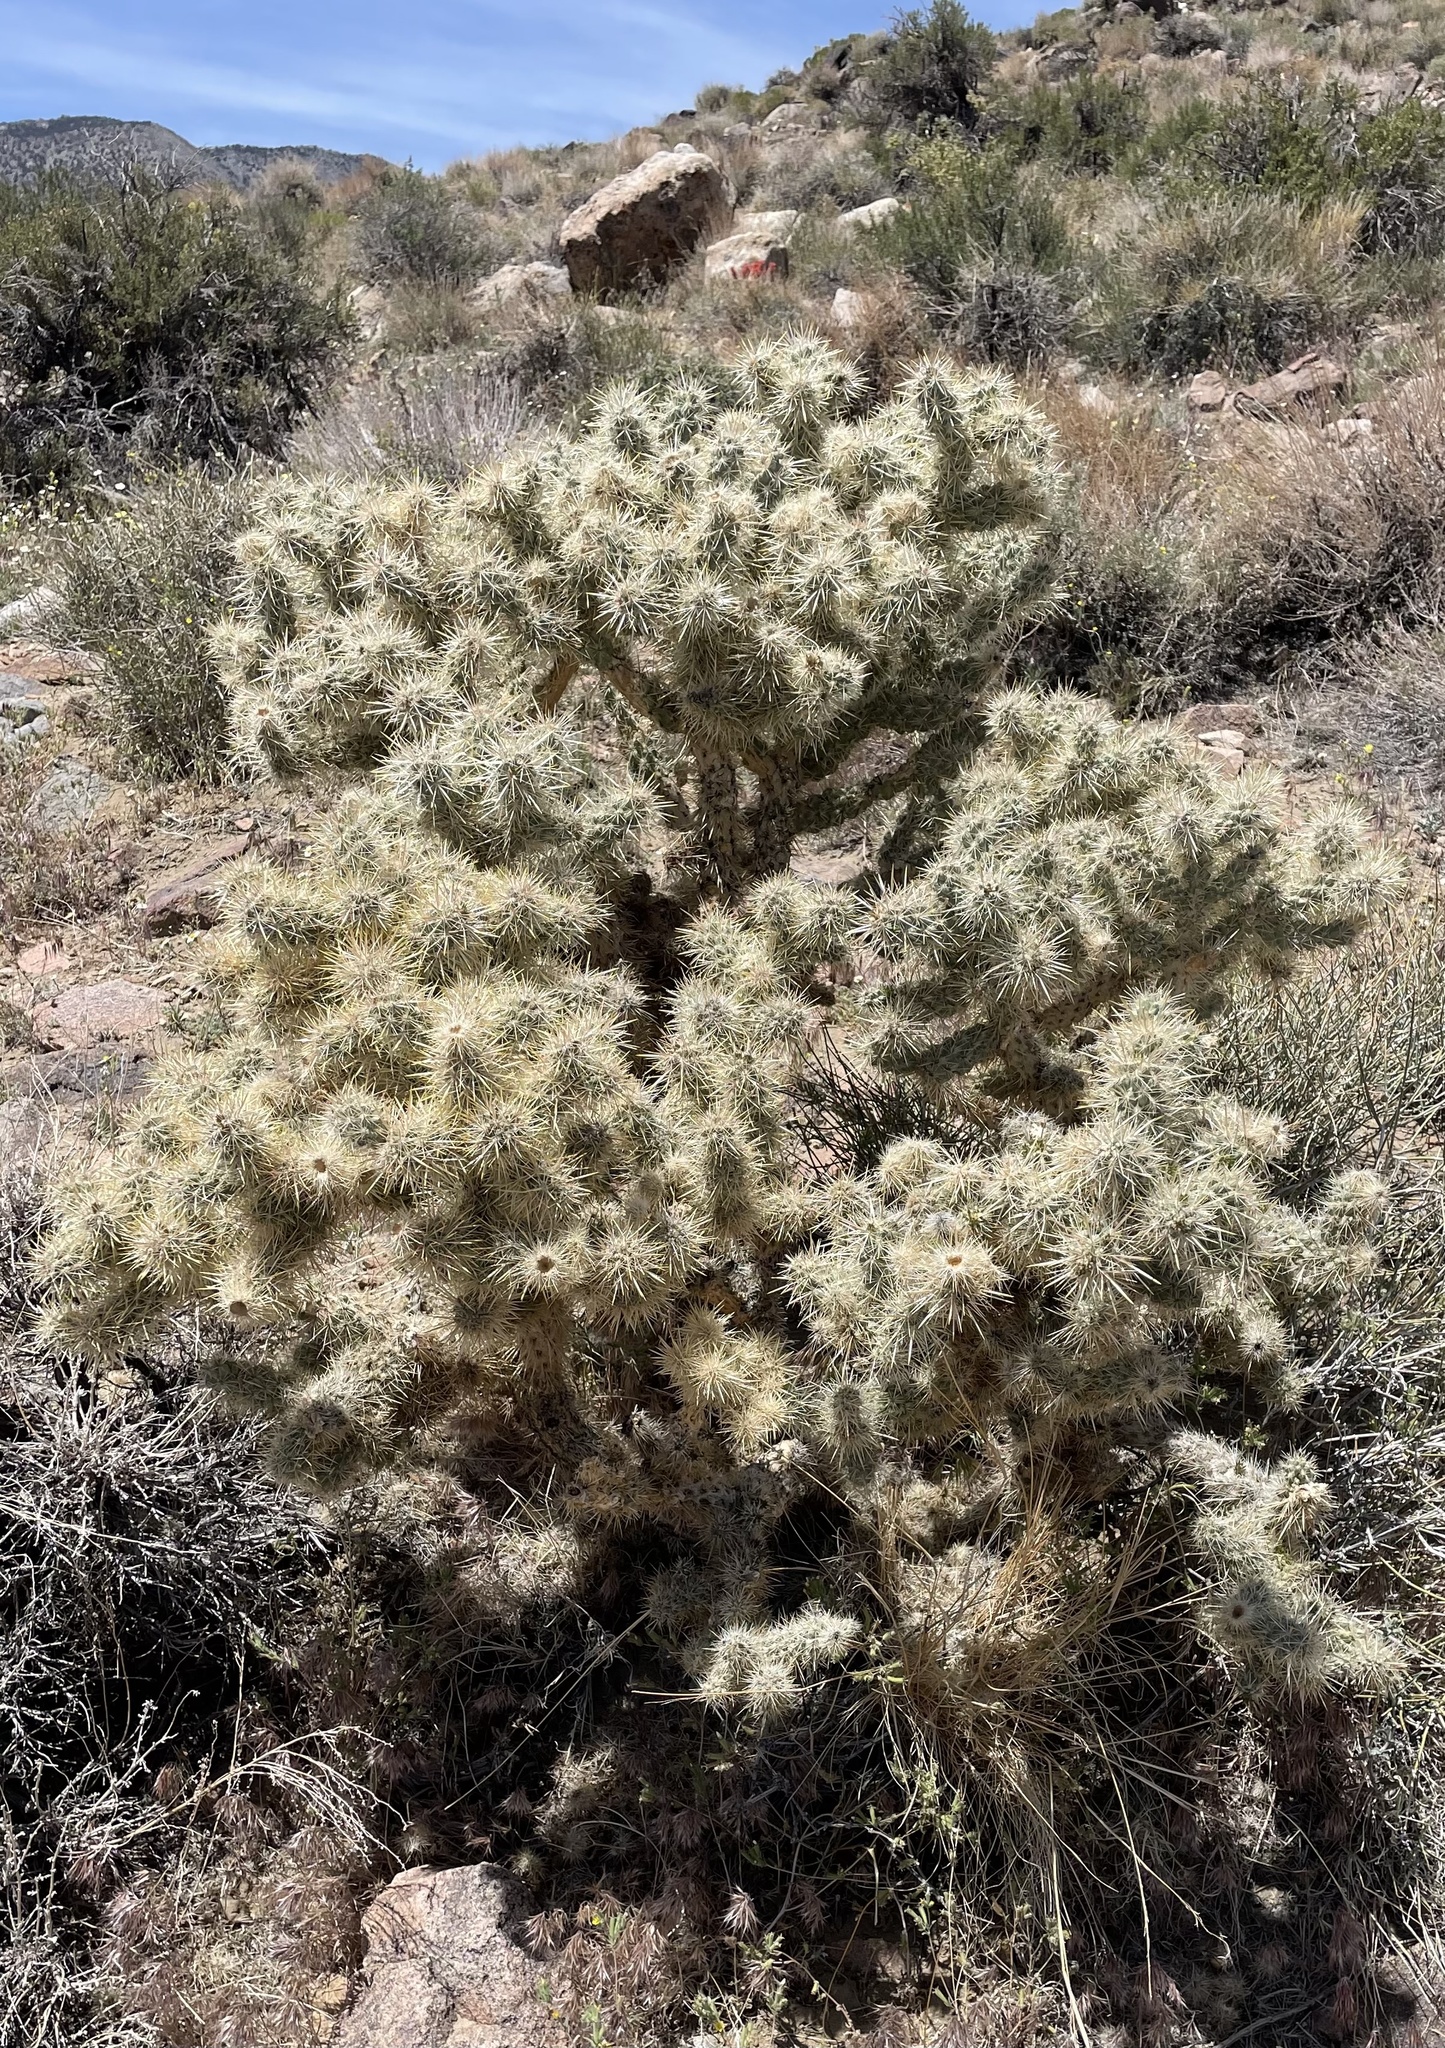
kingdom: Plantae
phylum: Tracheophyta
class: Magnoliopsida
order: Caryophyllales
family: Cactaceae
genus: Cylindropuntia
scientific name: Cylindropuntia echinocarpa
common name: Ground cholla
